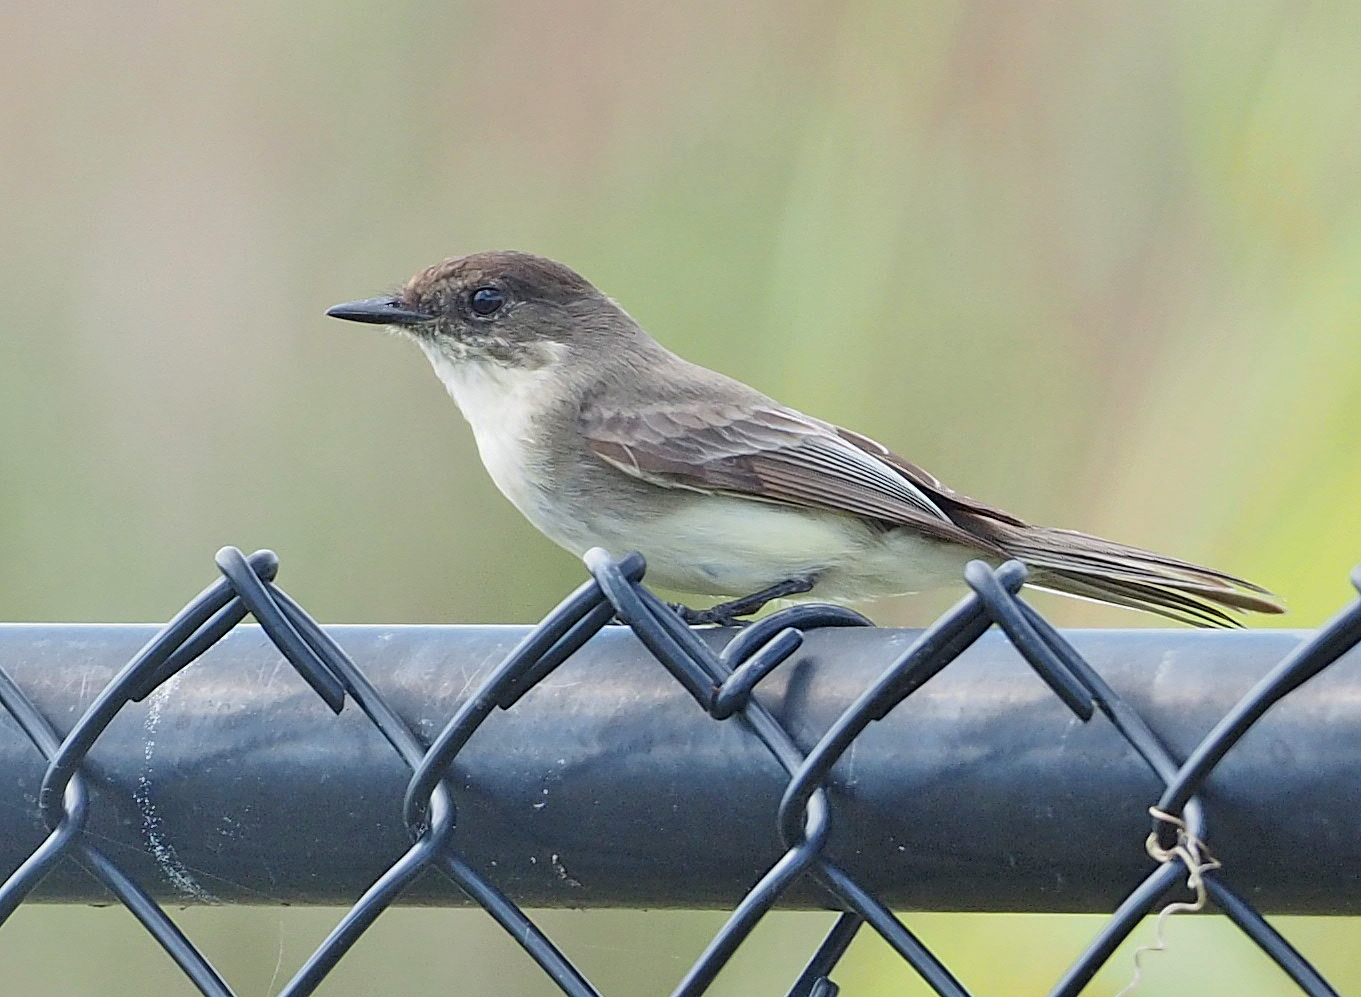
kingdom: Animalia
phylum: Chordata
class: Aves
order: Passeriformes
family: Tyrannidae
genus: Sayornis
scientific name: Sayornis phoebe
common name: Eastern phoebe
